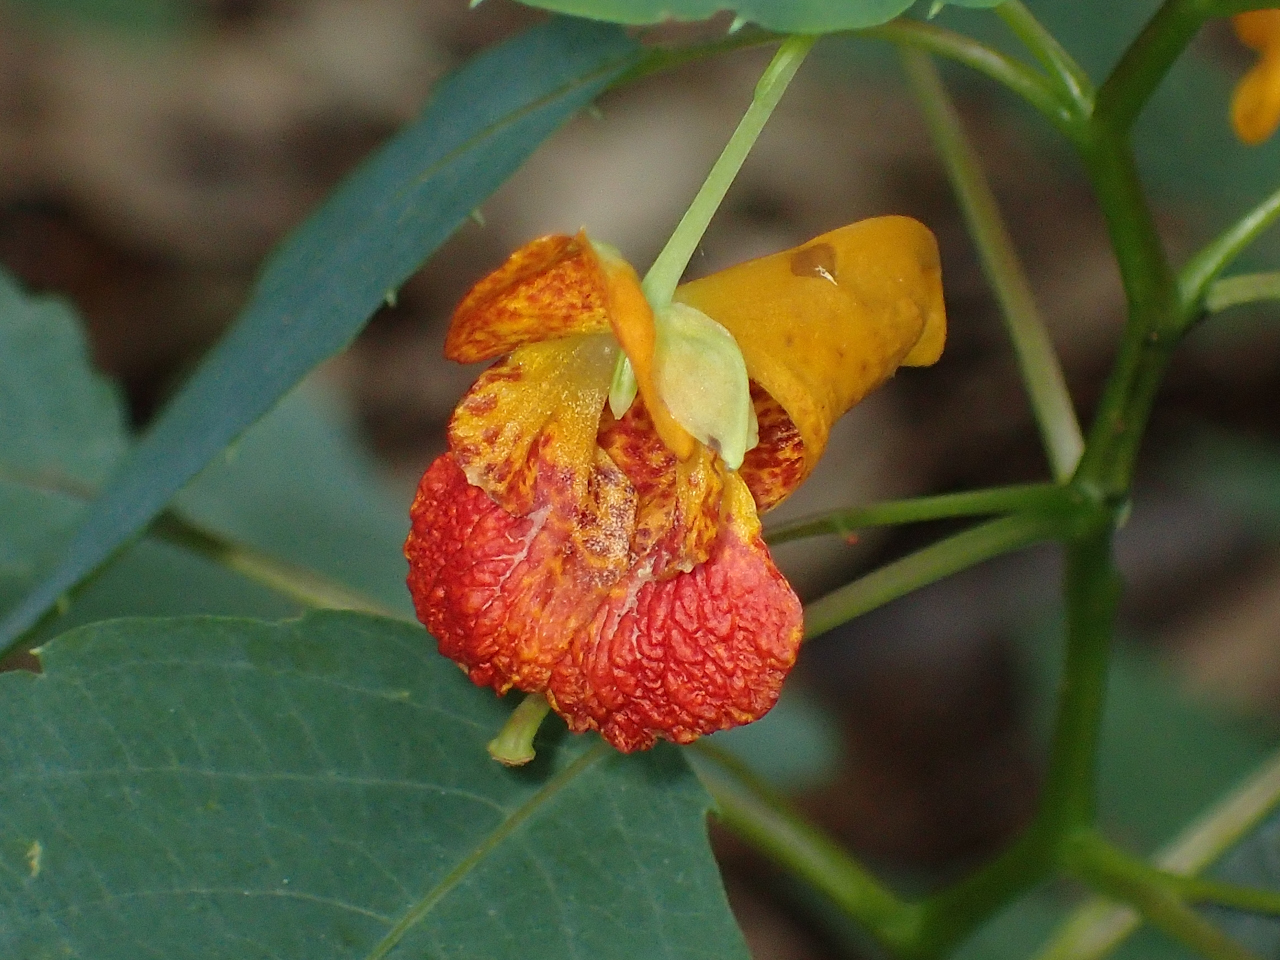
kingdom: Plantae
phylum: Tracheophyta
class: Magnoliopsida
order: Ericales
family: Balsaminaceae
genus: Impatiens
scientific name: Impatiens capensis
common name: Orange balsam
